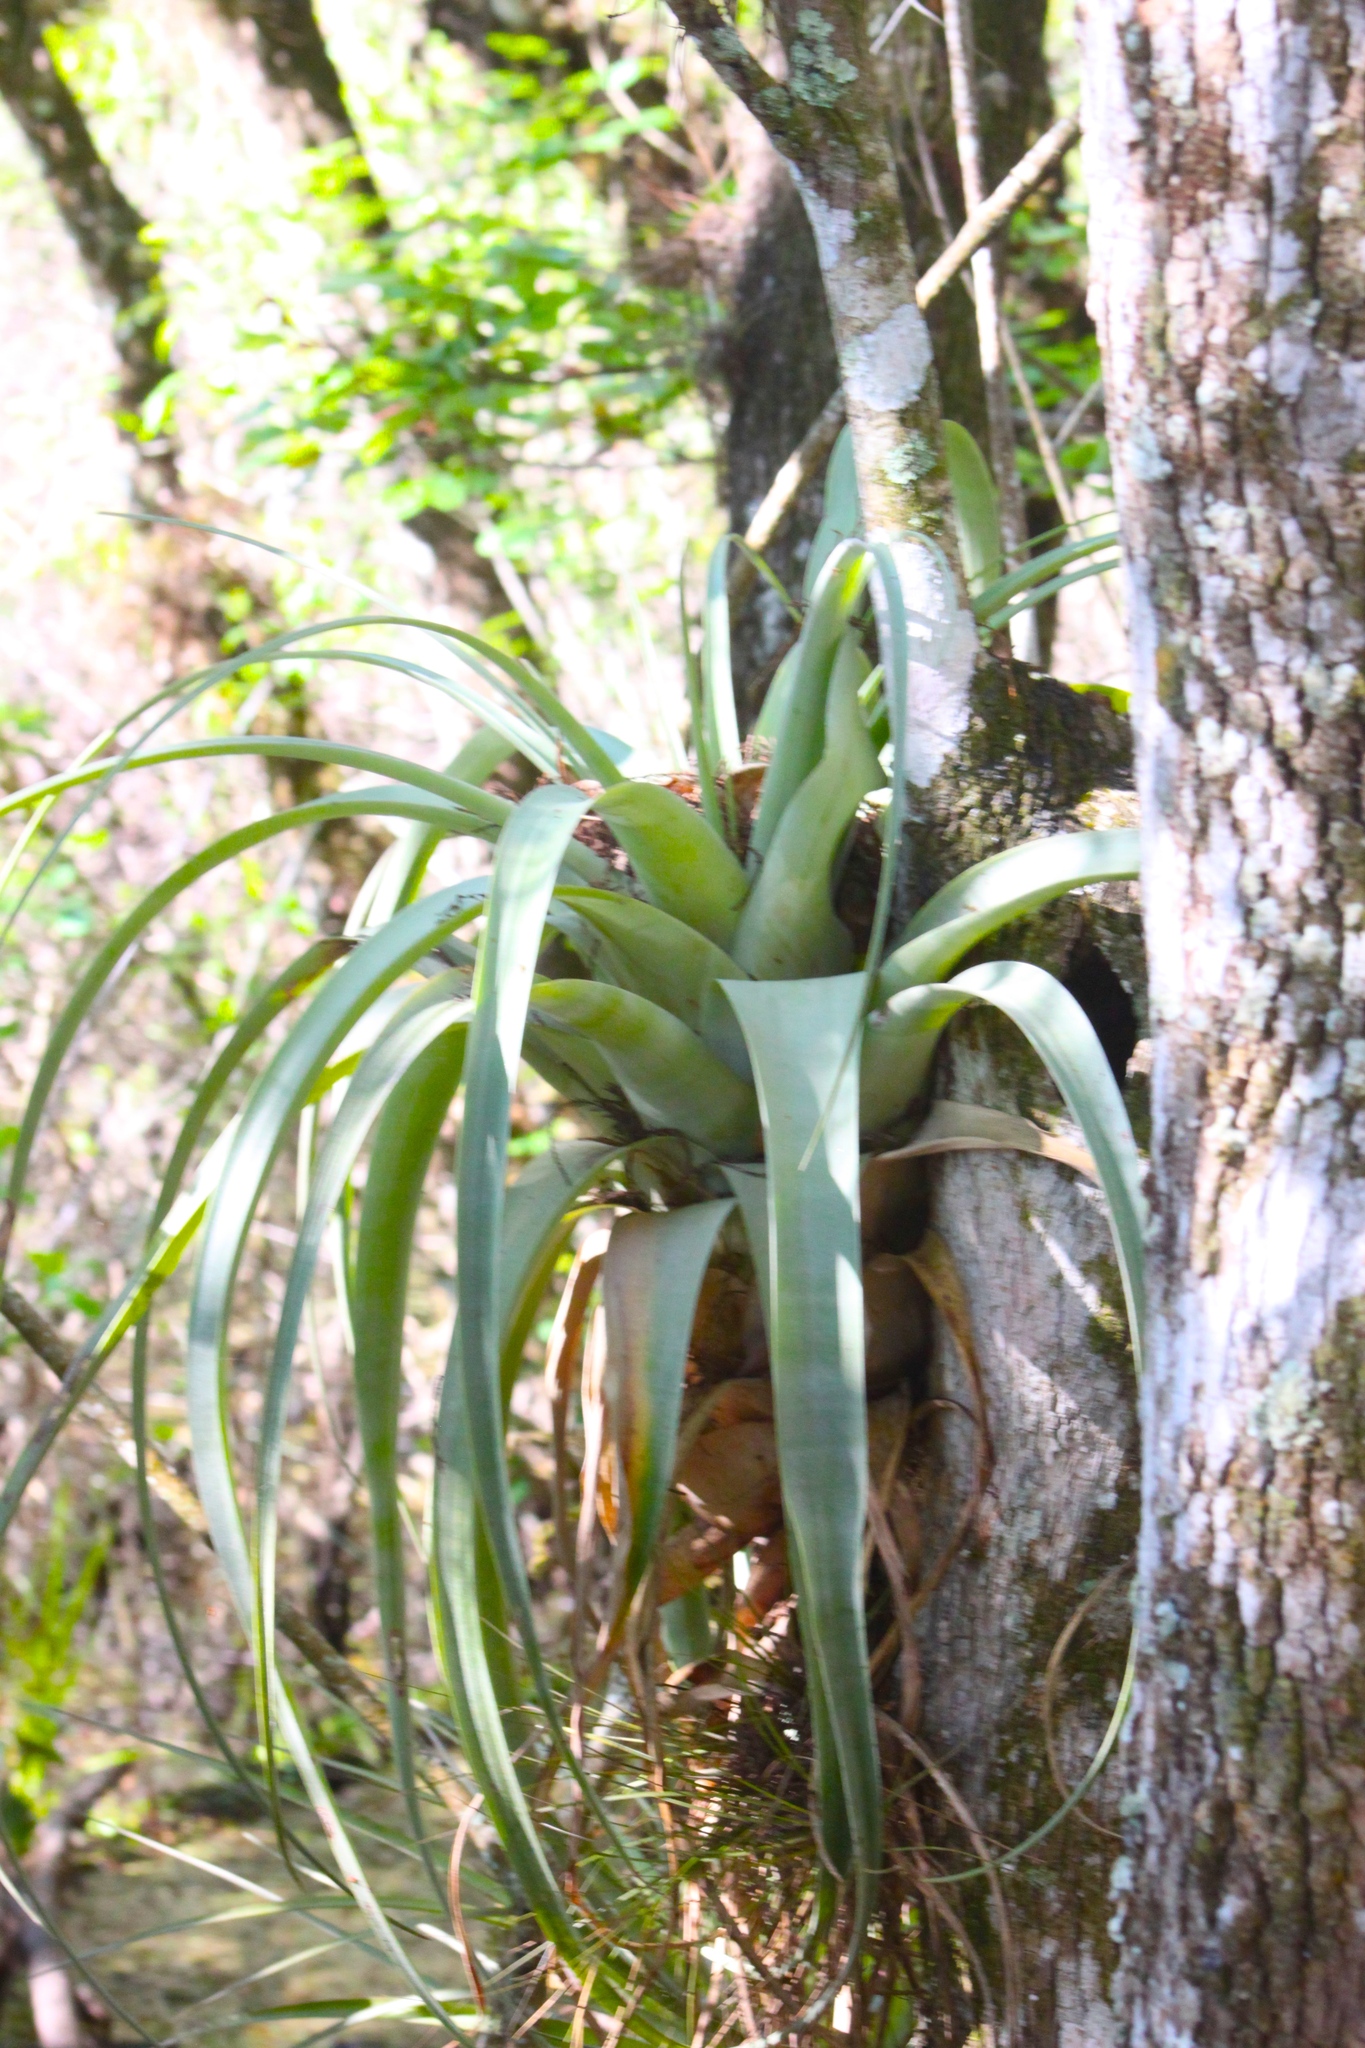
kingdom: Plantae
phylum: Tracheophyta
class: Liliopsida
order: Poales
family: Bromeliaceae
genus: Tillandsia
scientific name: Tillandsia utriculata
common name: Wild pine
